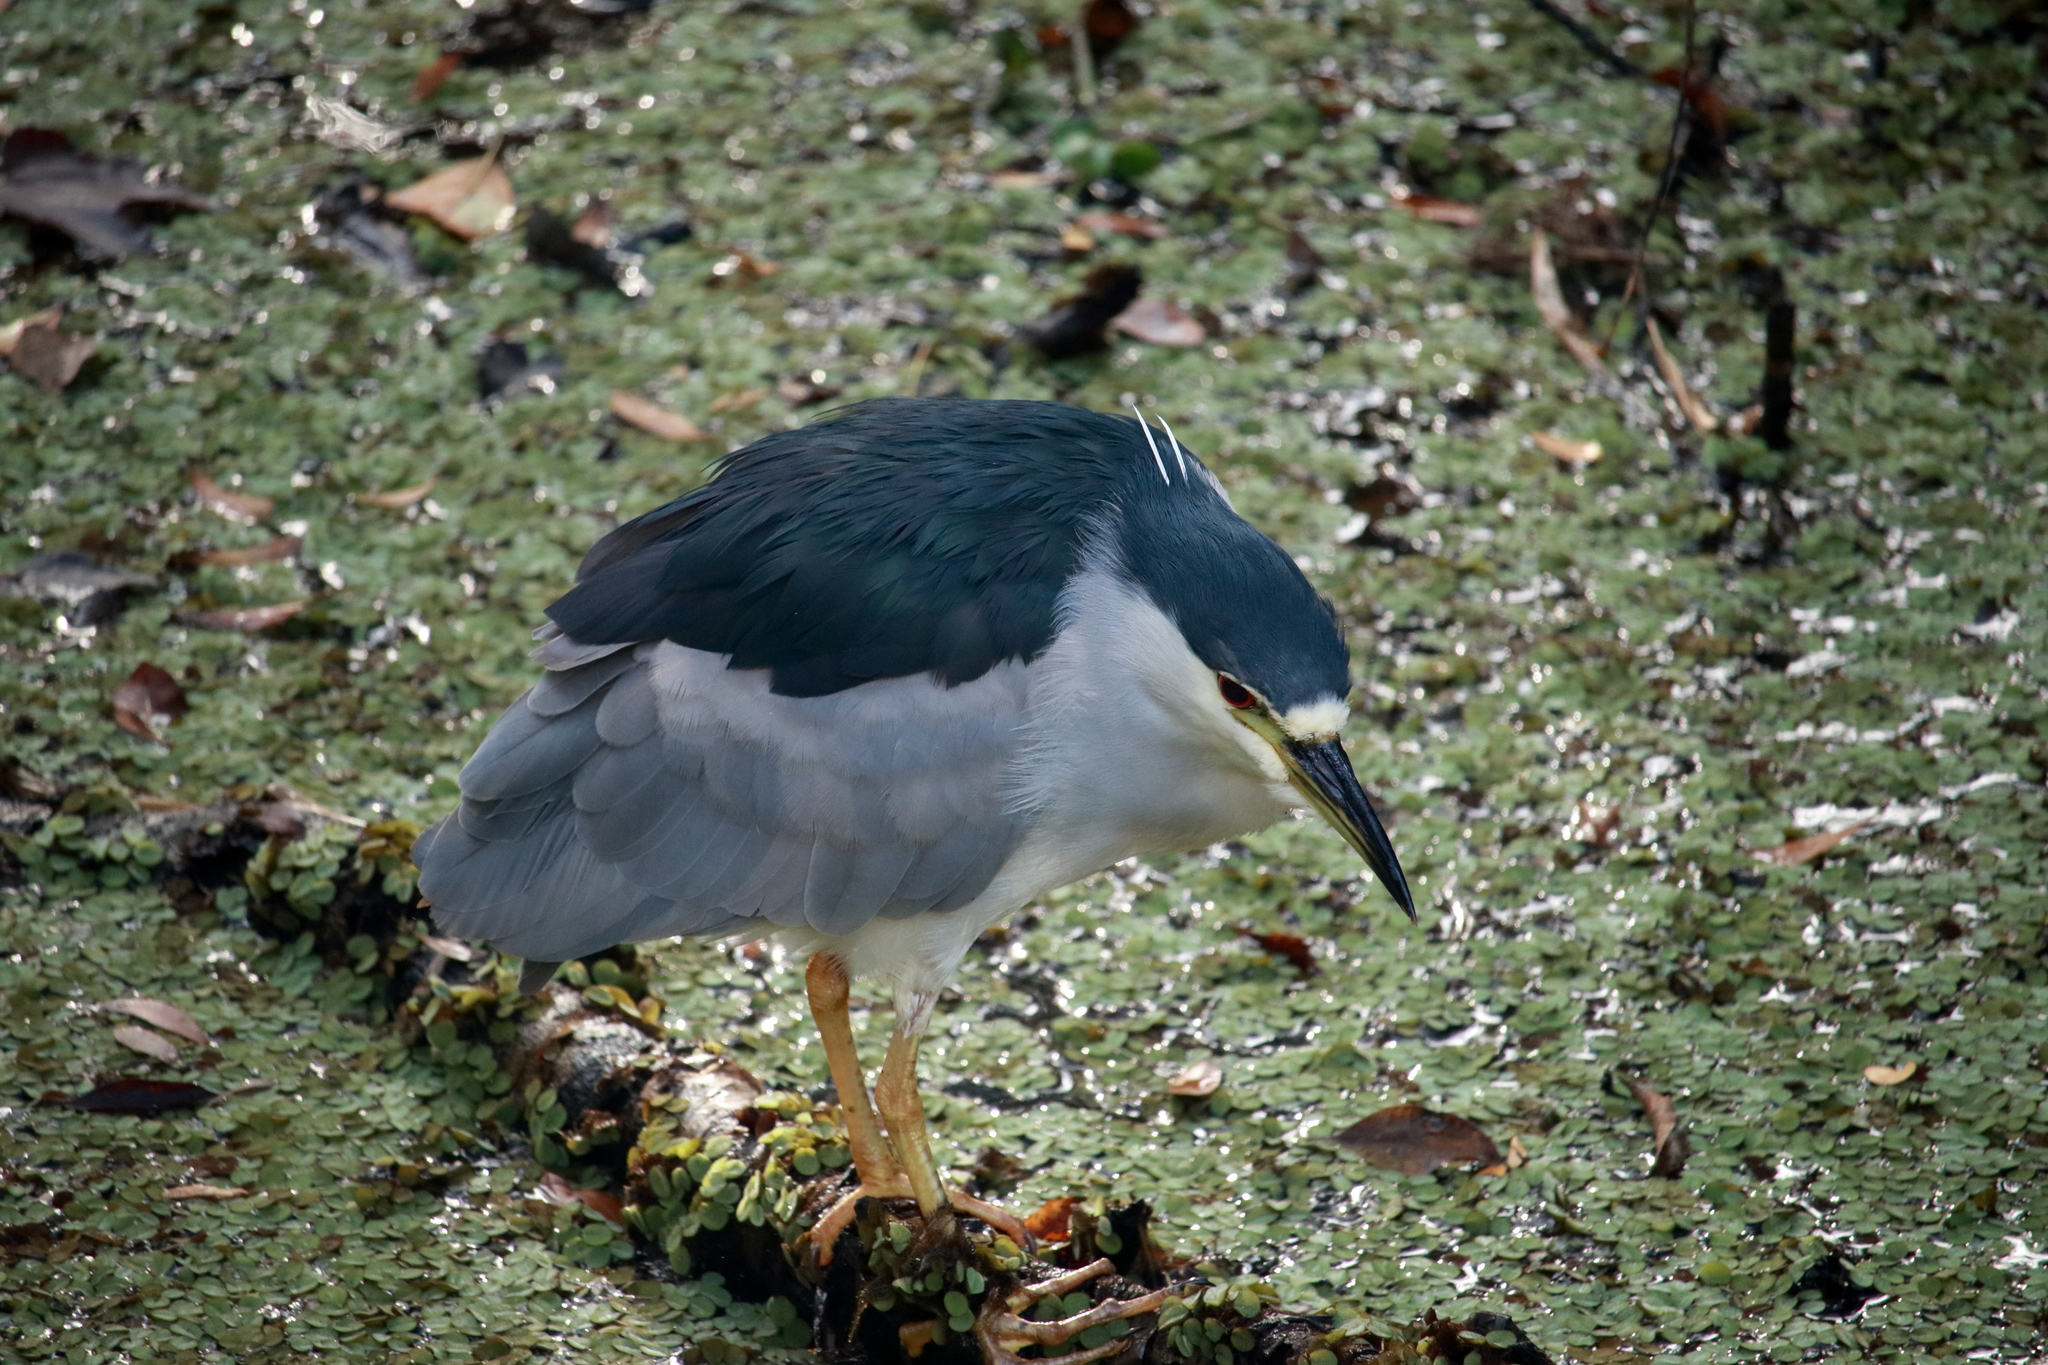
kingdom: Animalia
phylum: Chordata
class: Aves
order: Pelecaniformes
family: Ardeidae
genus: Nycticorax
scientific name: Nycticorax nycticorax
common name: Black-crowned night heron
